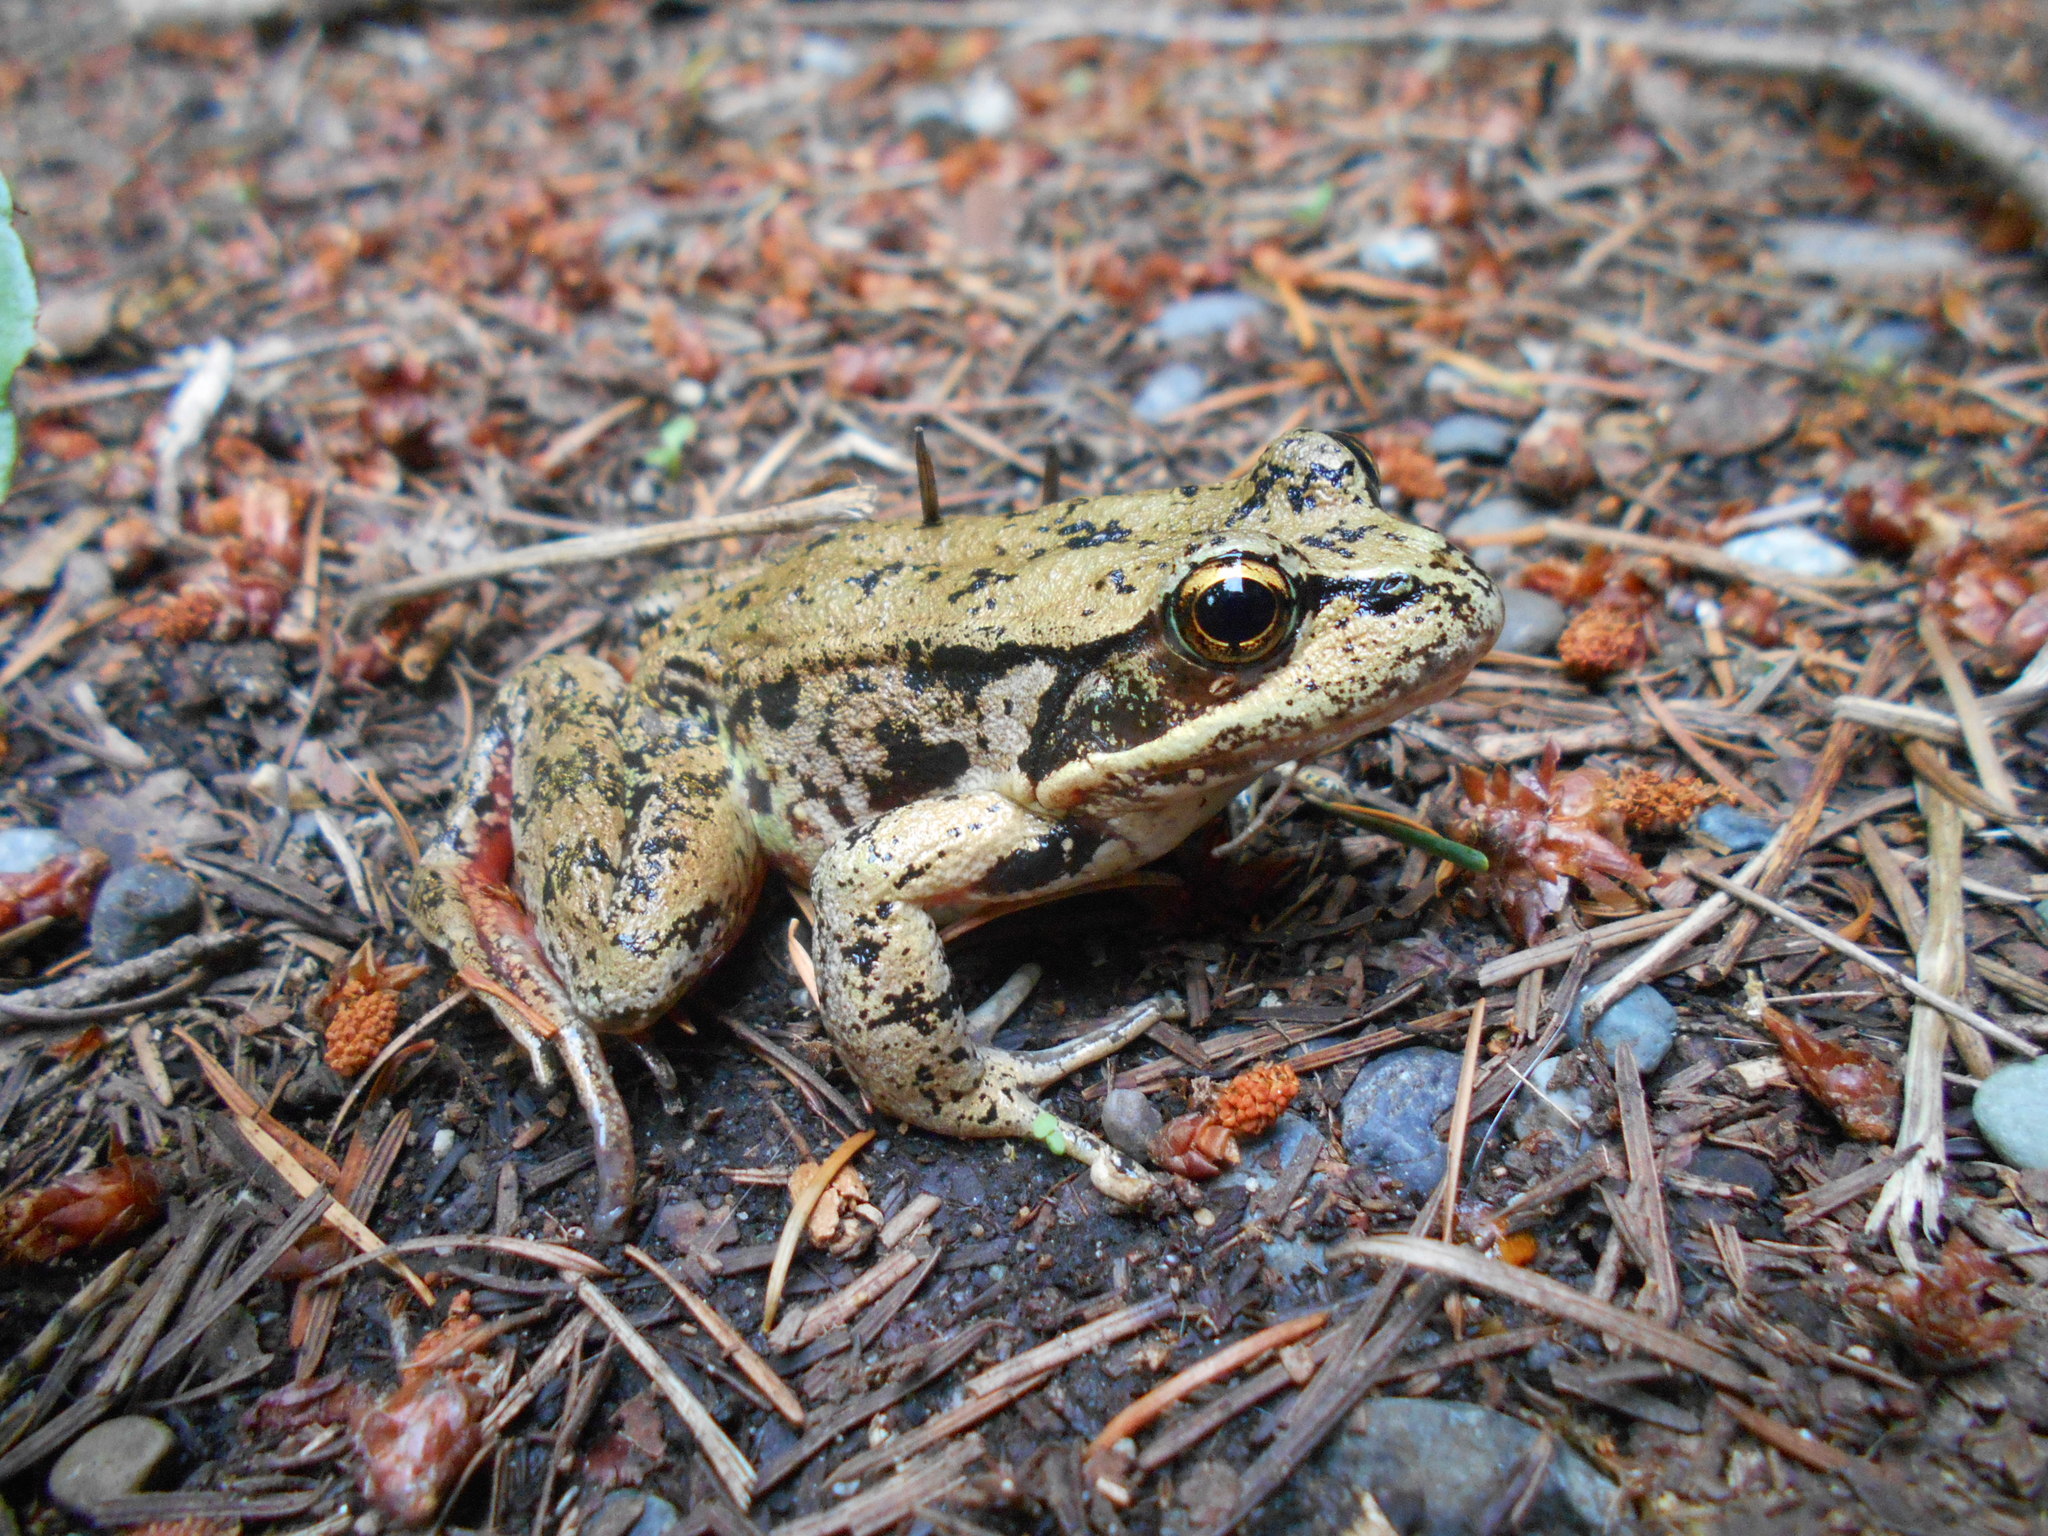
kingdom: Animalia
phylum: Chordata
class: Amphibia
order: Anura
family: Ranidae
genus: Rana
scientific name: Rana aurora
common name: Red-legged frog
